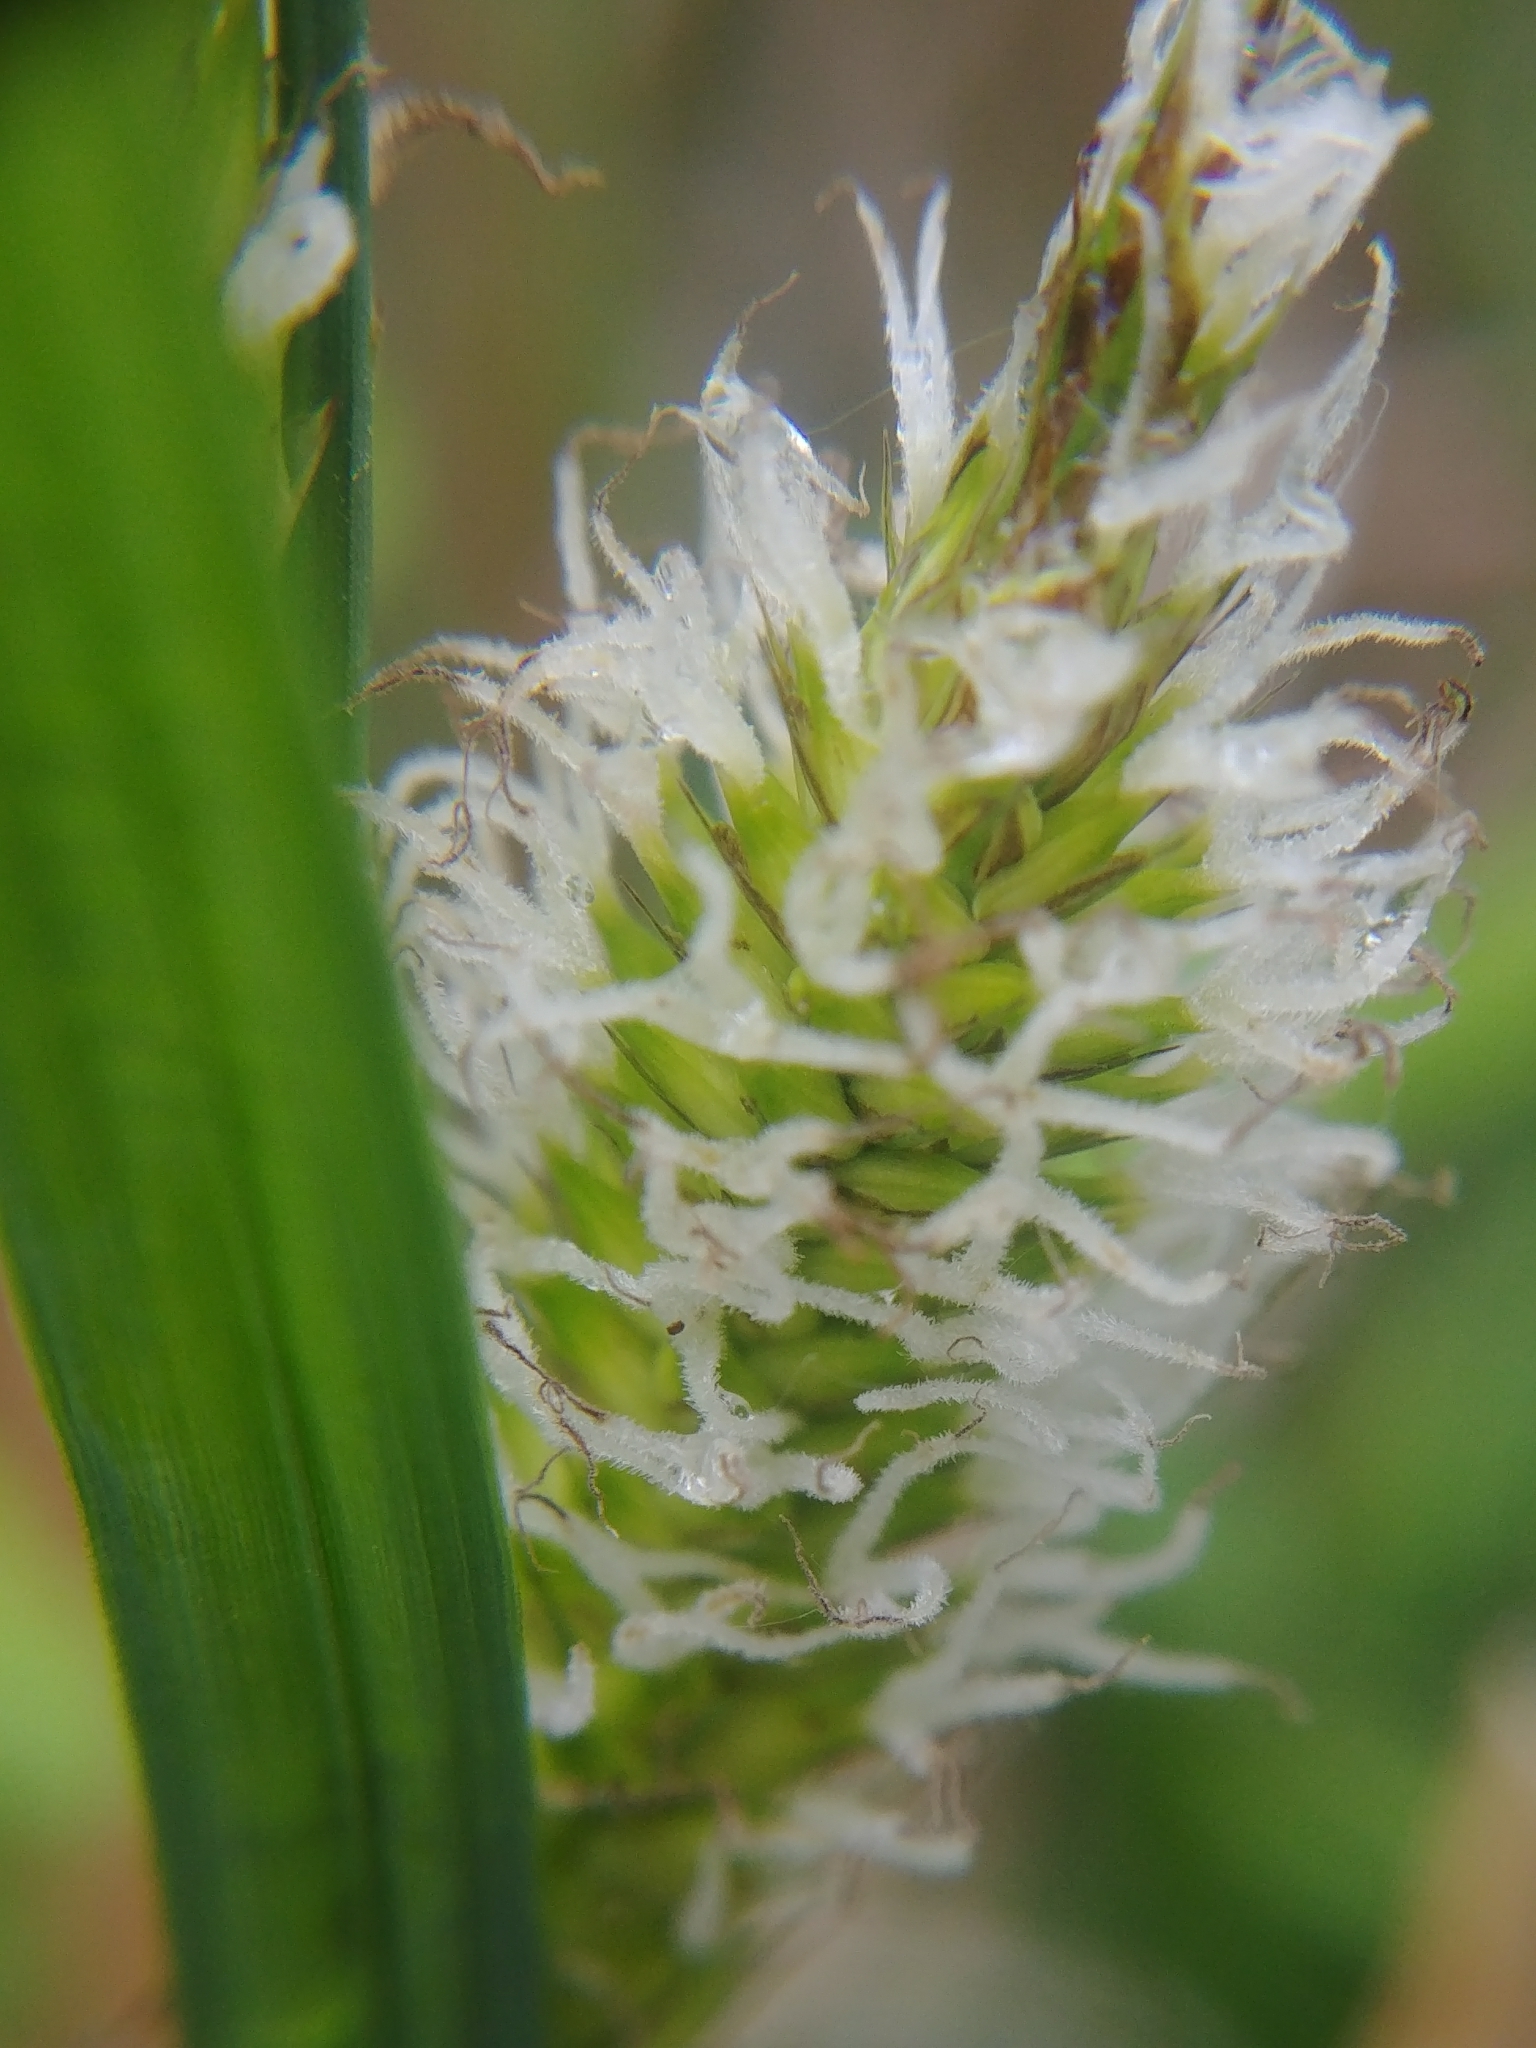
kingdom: Plantae
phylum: Tracheophyta
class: Liliopsida
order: Poales
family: Cyperaceae
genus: Carex
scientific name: Carex pellita
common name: Woolly sedge
